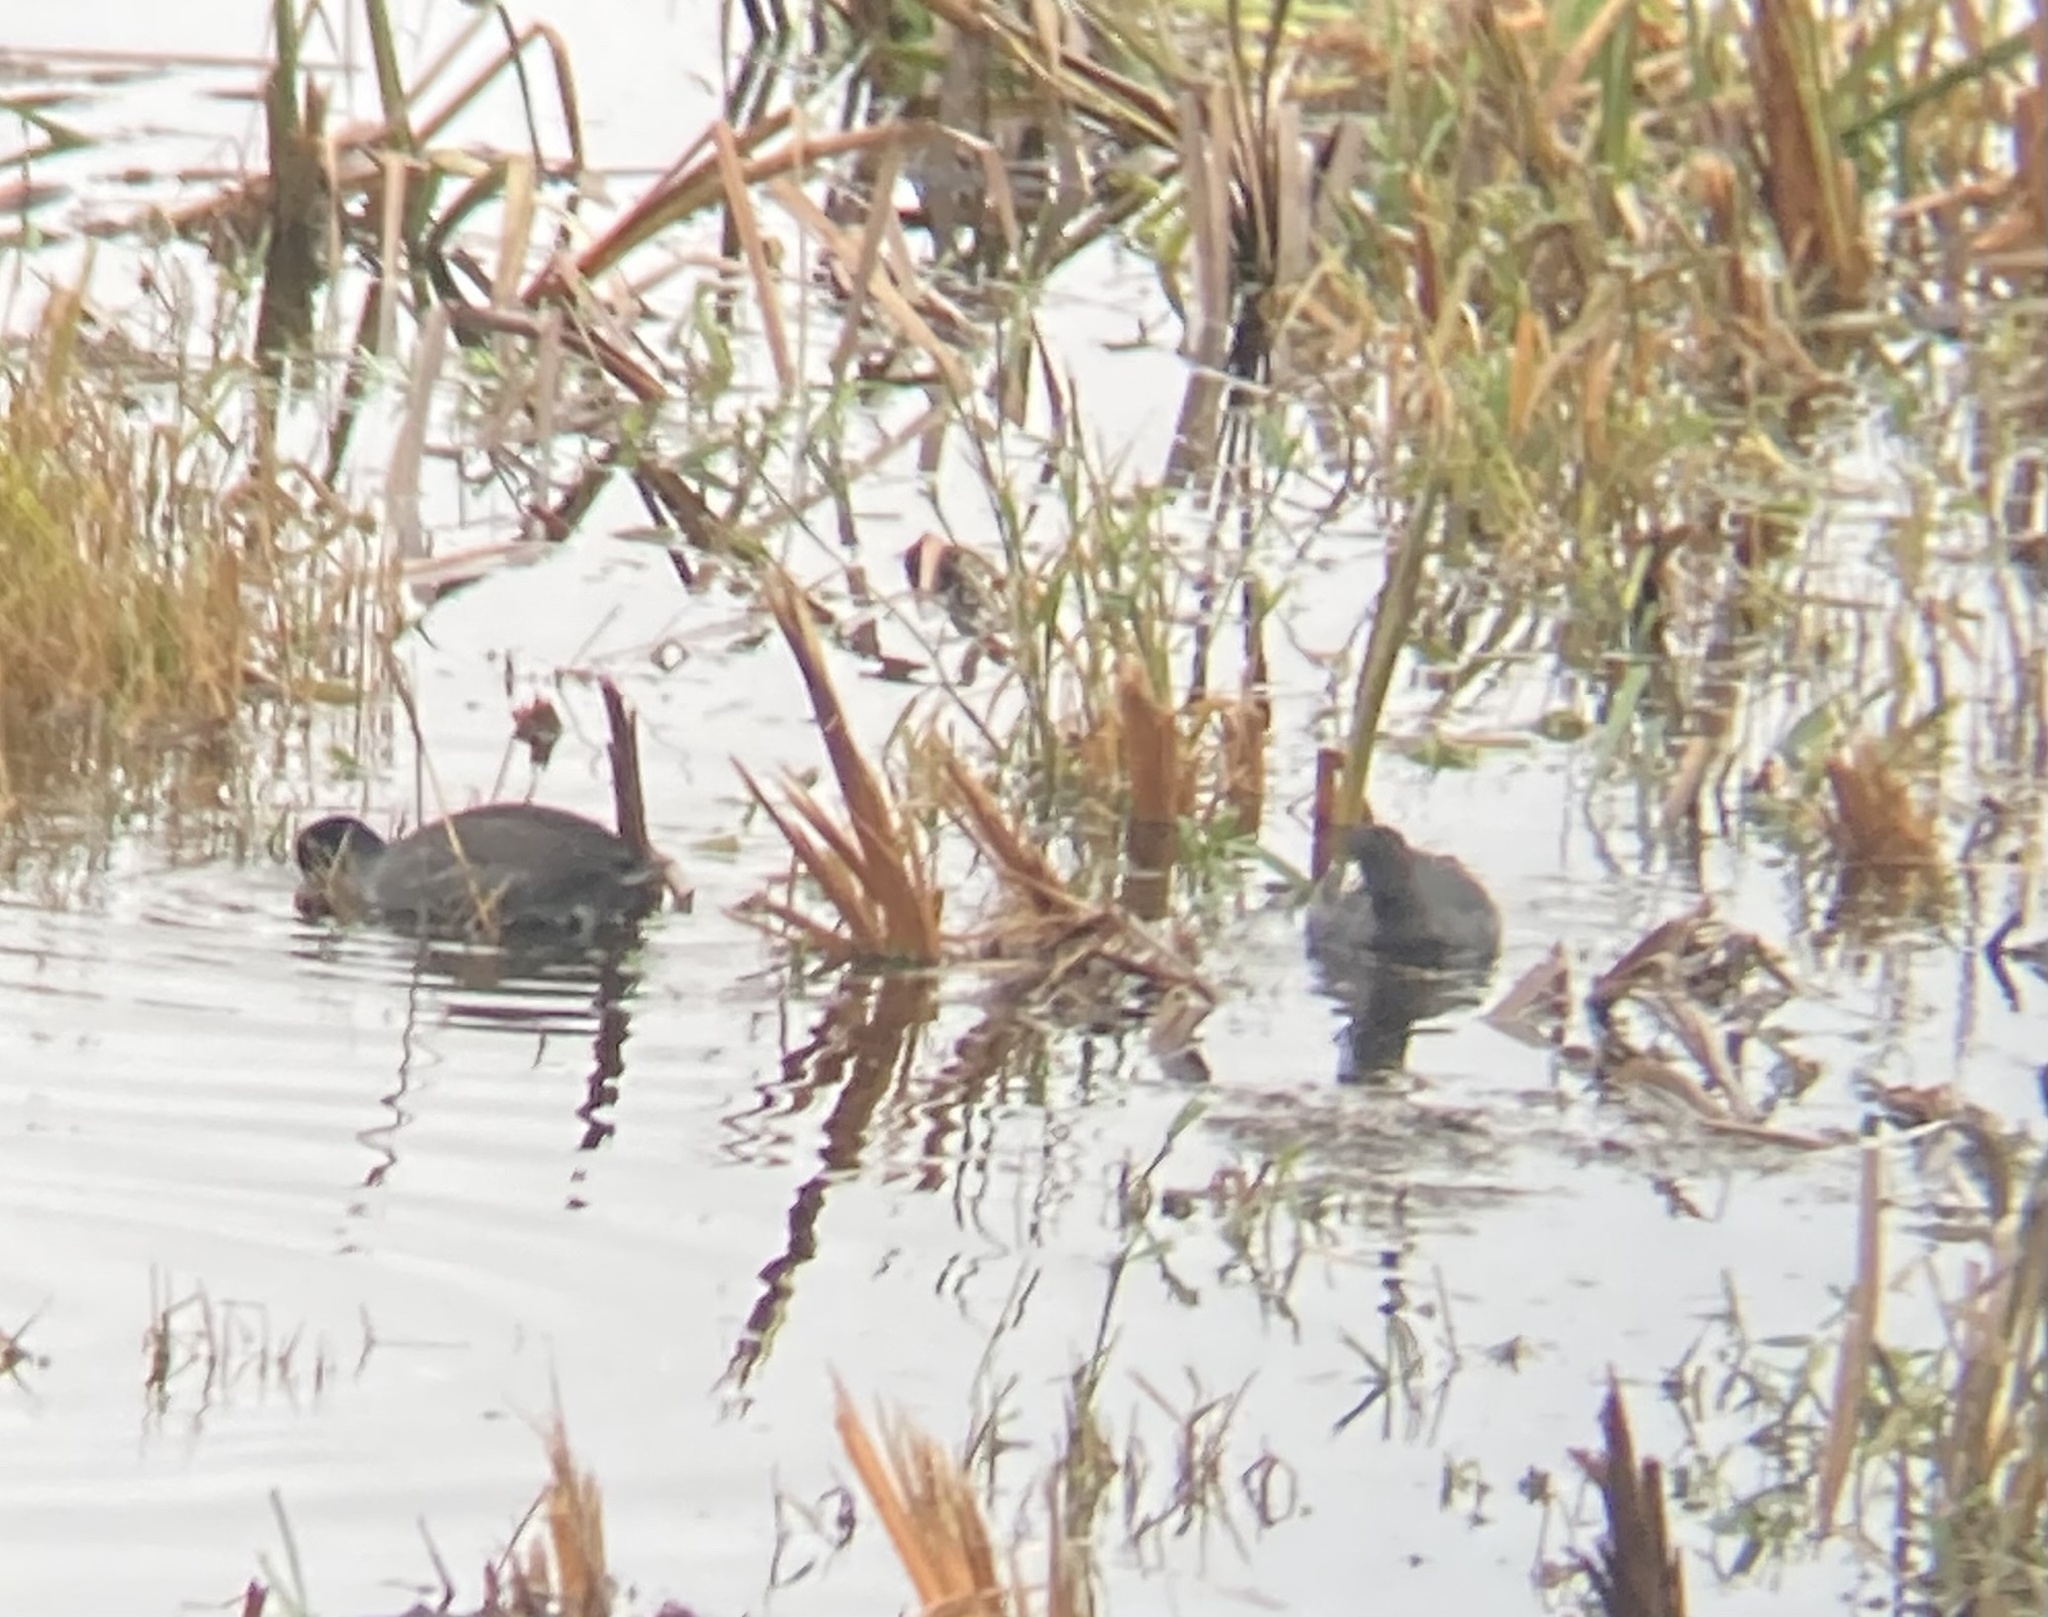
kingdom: Animalia
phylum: Chordata
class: Aves
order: Gruiformes
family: Rallidae
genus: Fulica
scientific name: Fulica americana
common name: American coot
